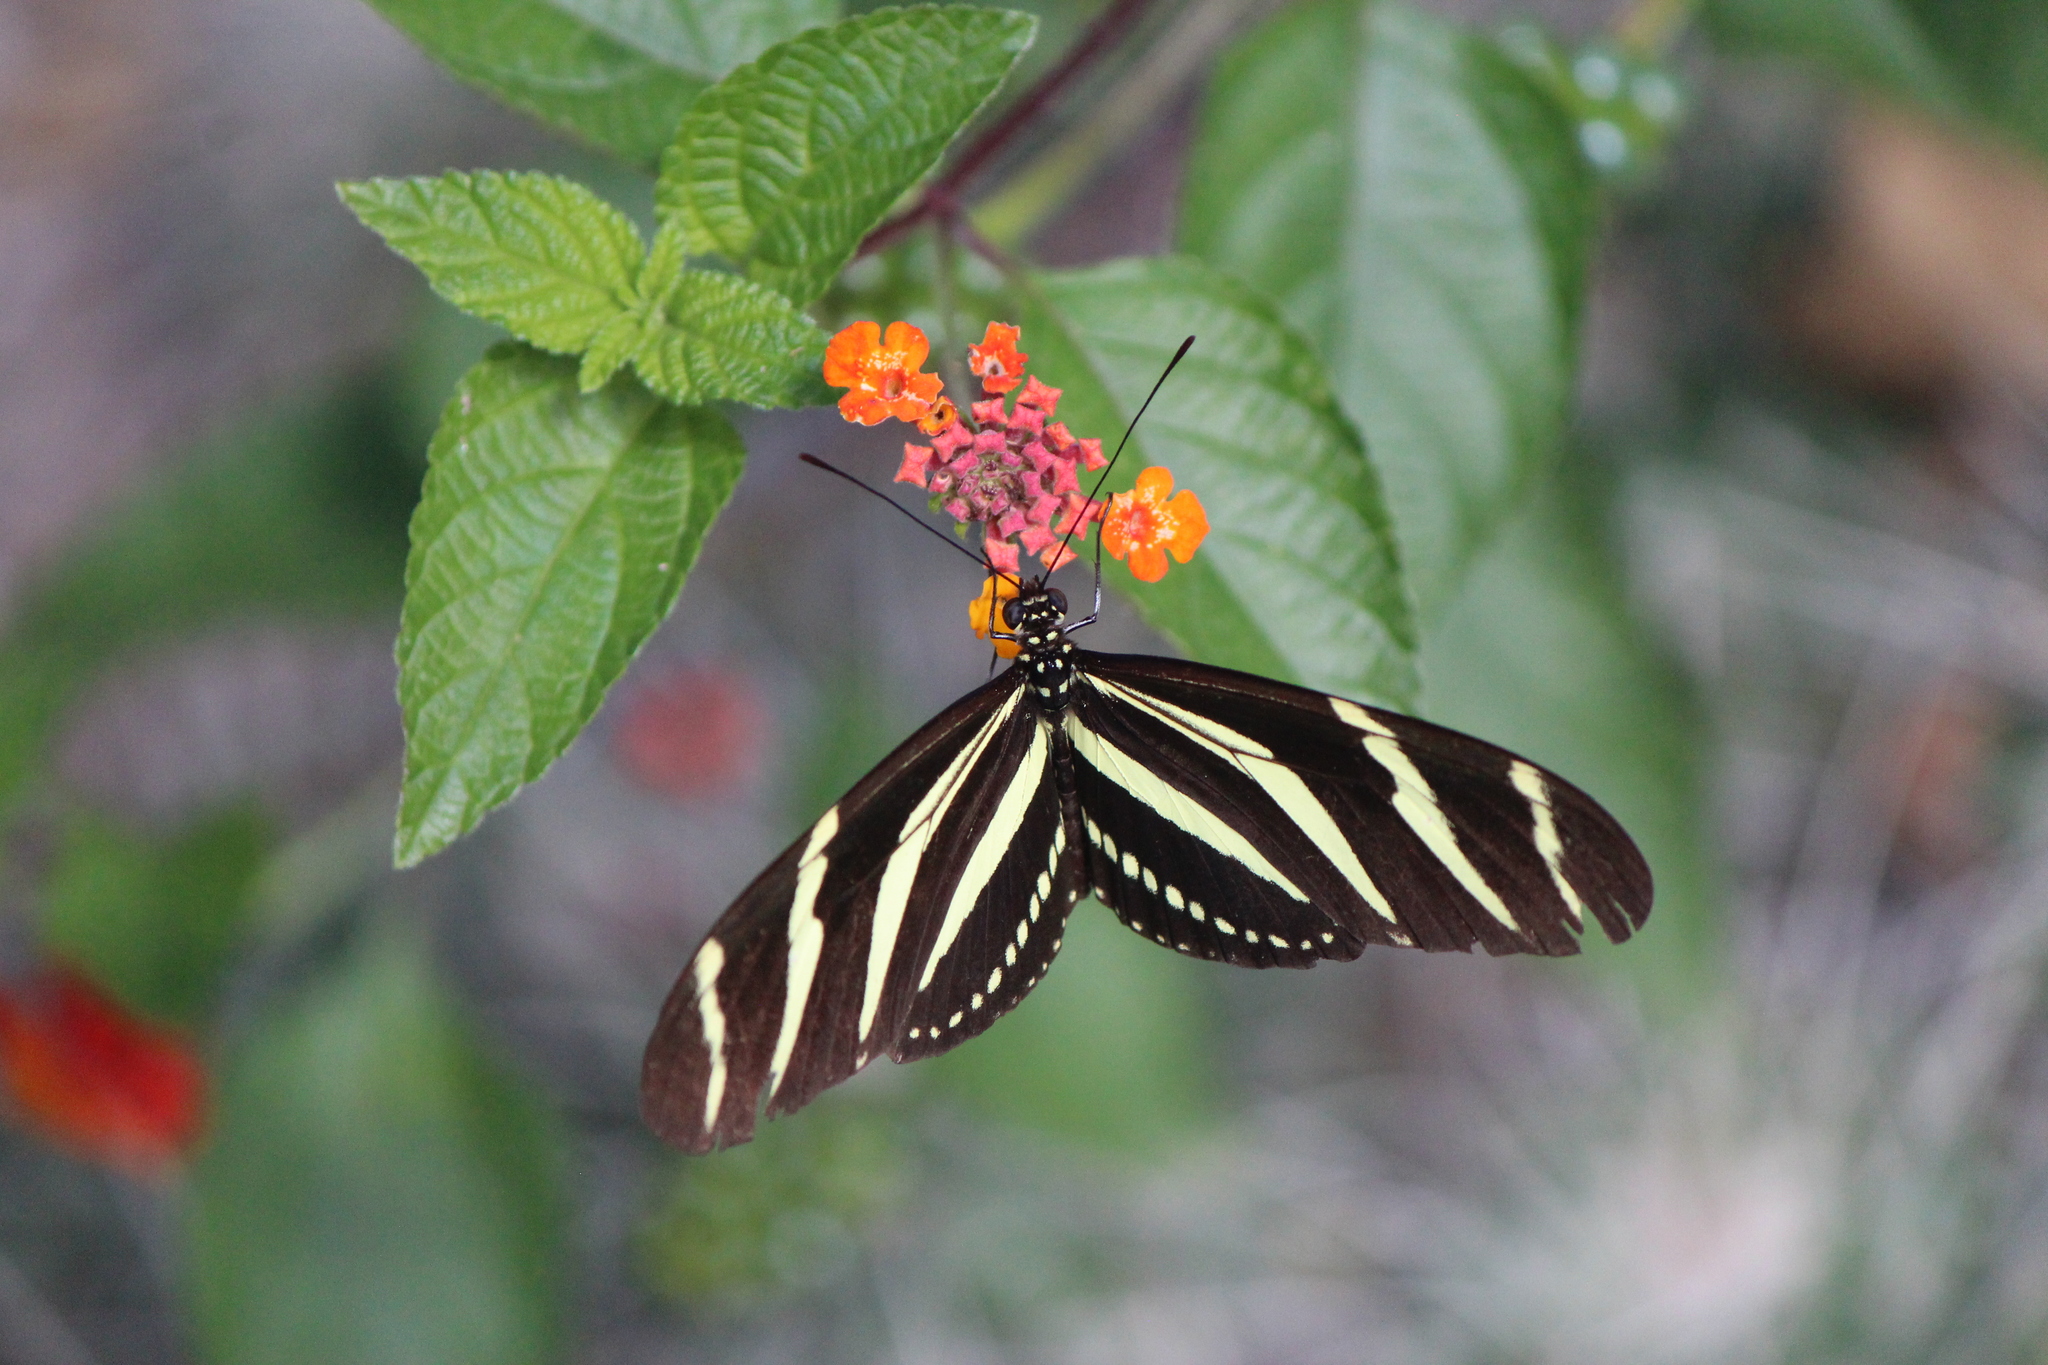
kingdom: Animalia
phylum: Arthropoda
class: Insecta
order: Lepidoptera
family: Nymphalidae
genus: Heliconius
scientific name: Heliconius charithonia
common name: Zebra long wing
